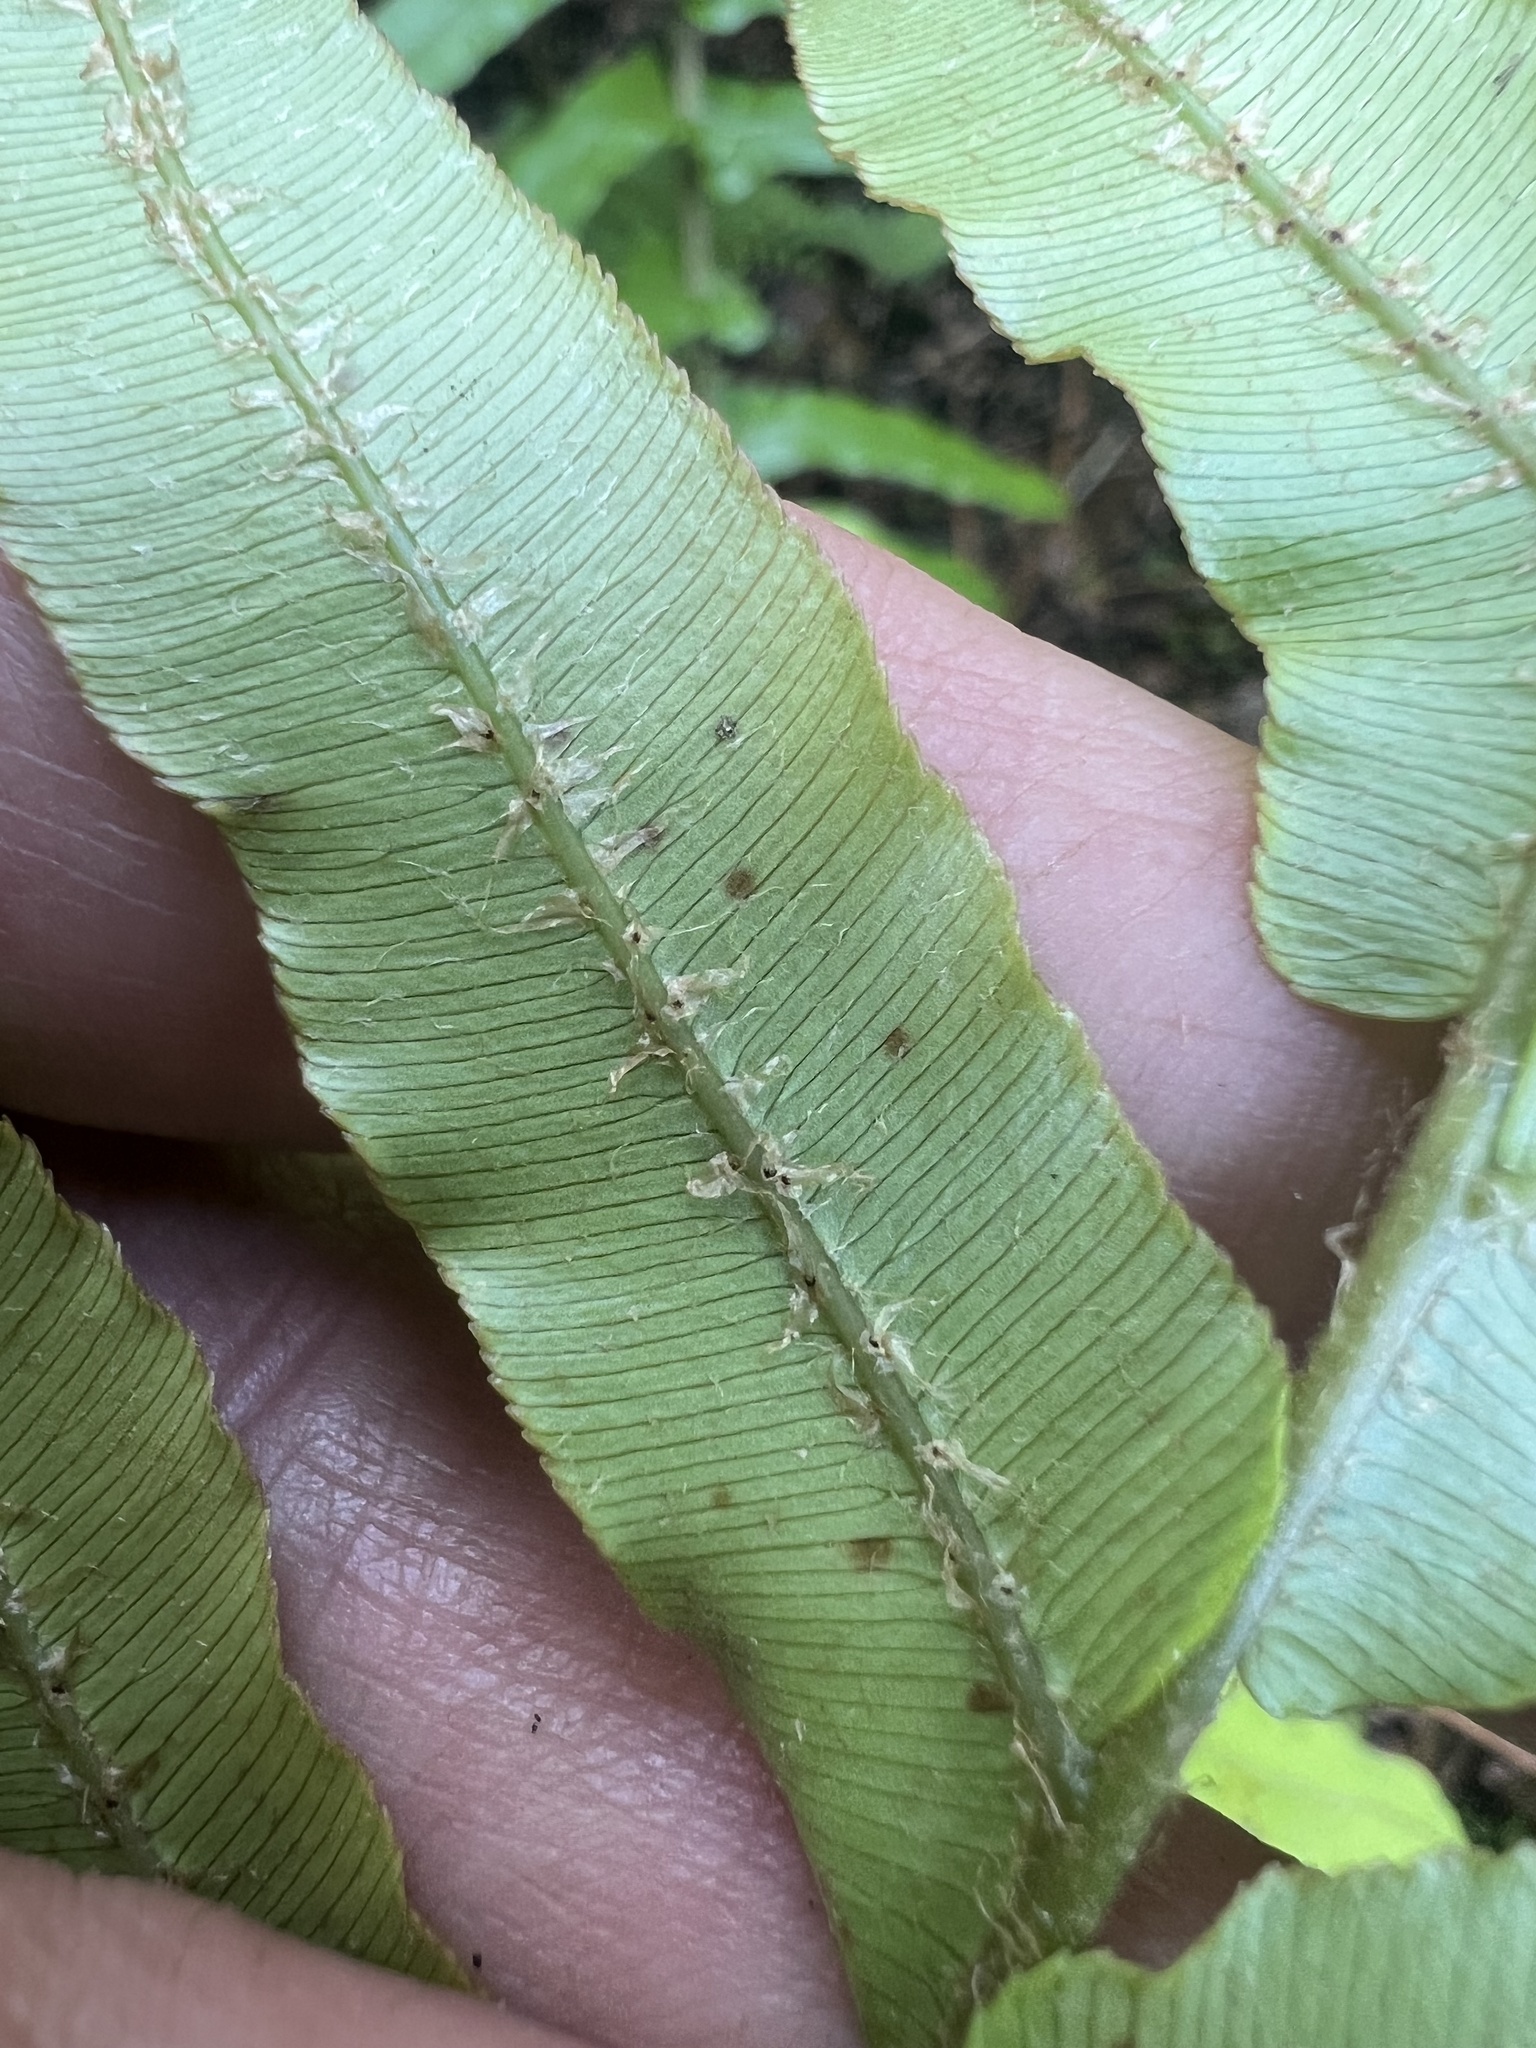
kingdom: Plantae
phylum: Tracheophyta
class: Polypodiopsida
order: Polypodiales
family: Blechnaceae
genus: Parablechnum
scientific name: Parablechnum novae-zelandiae
